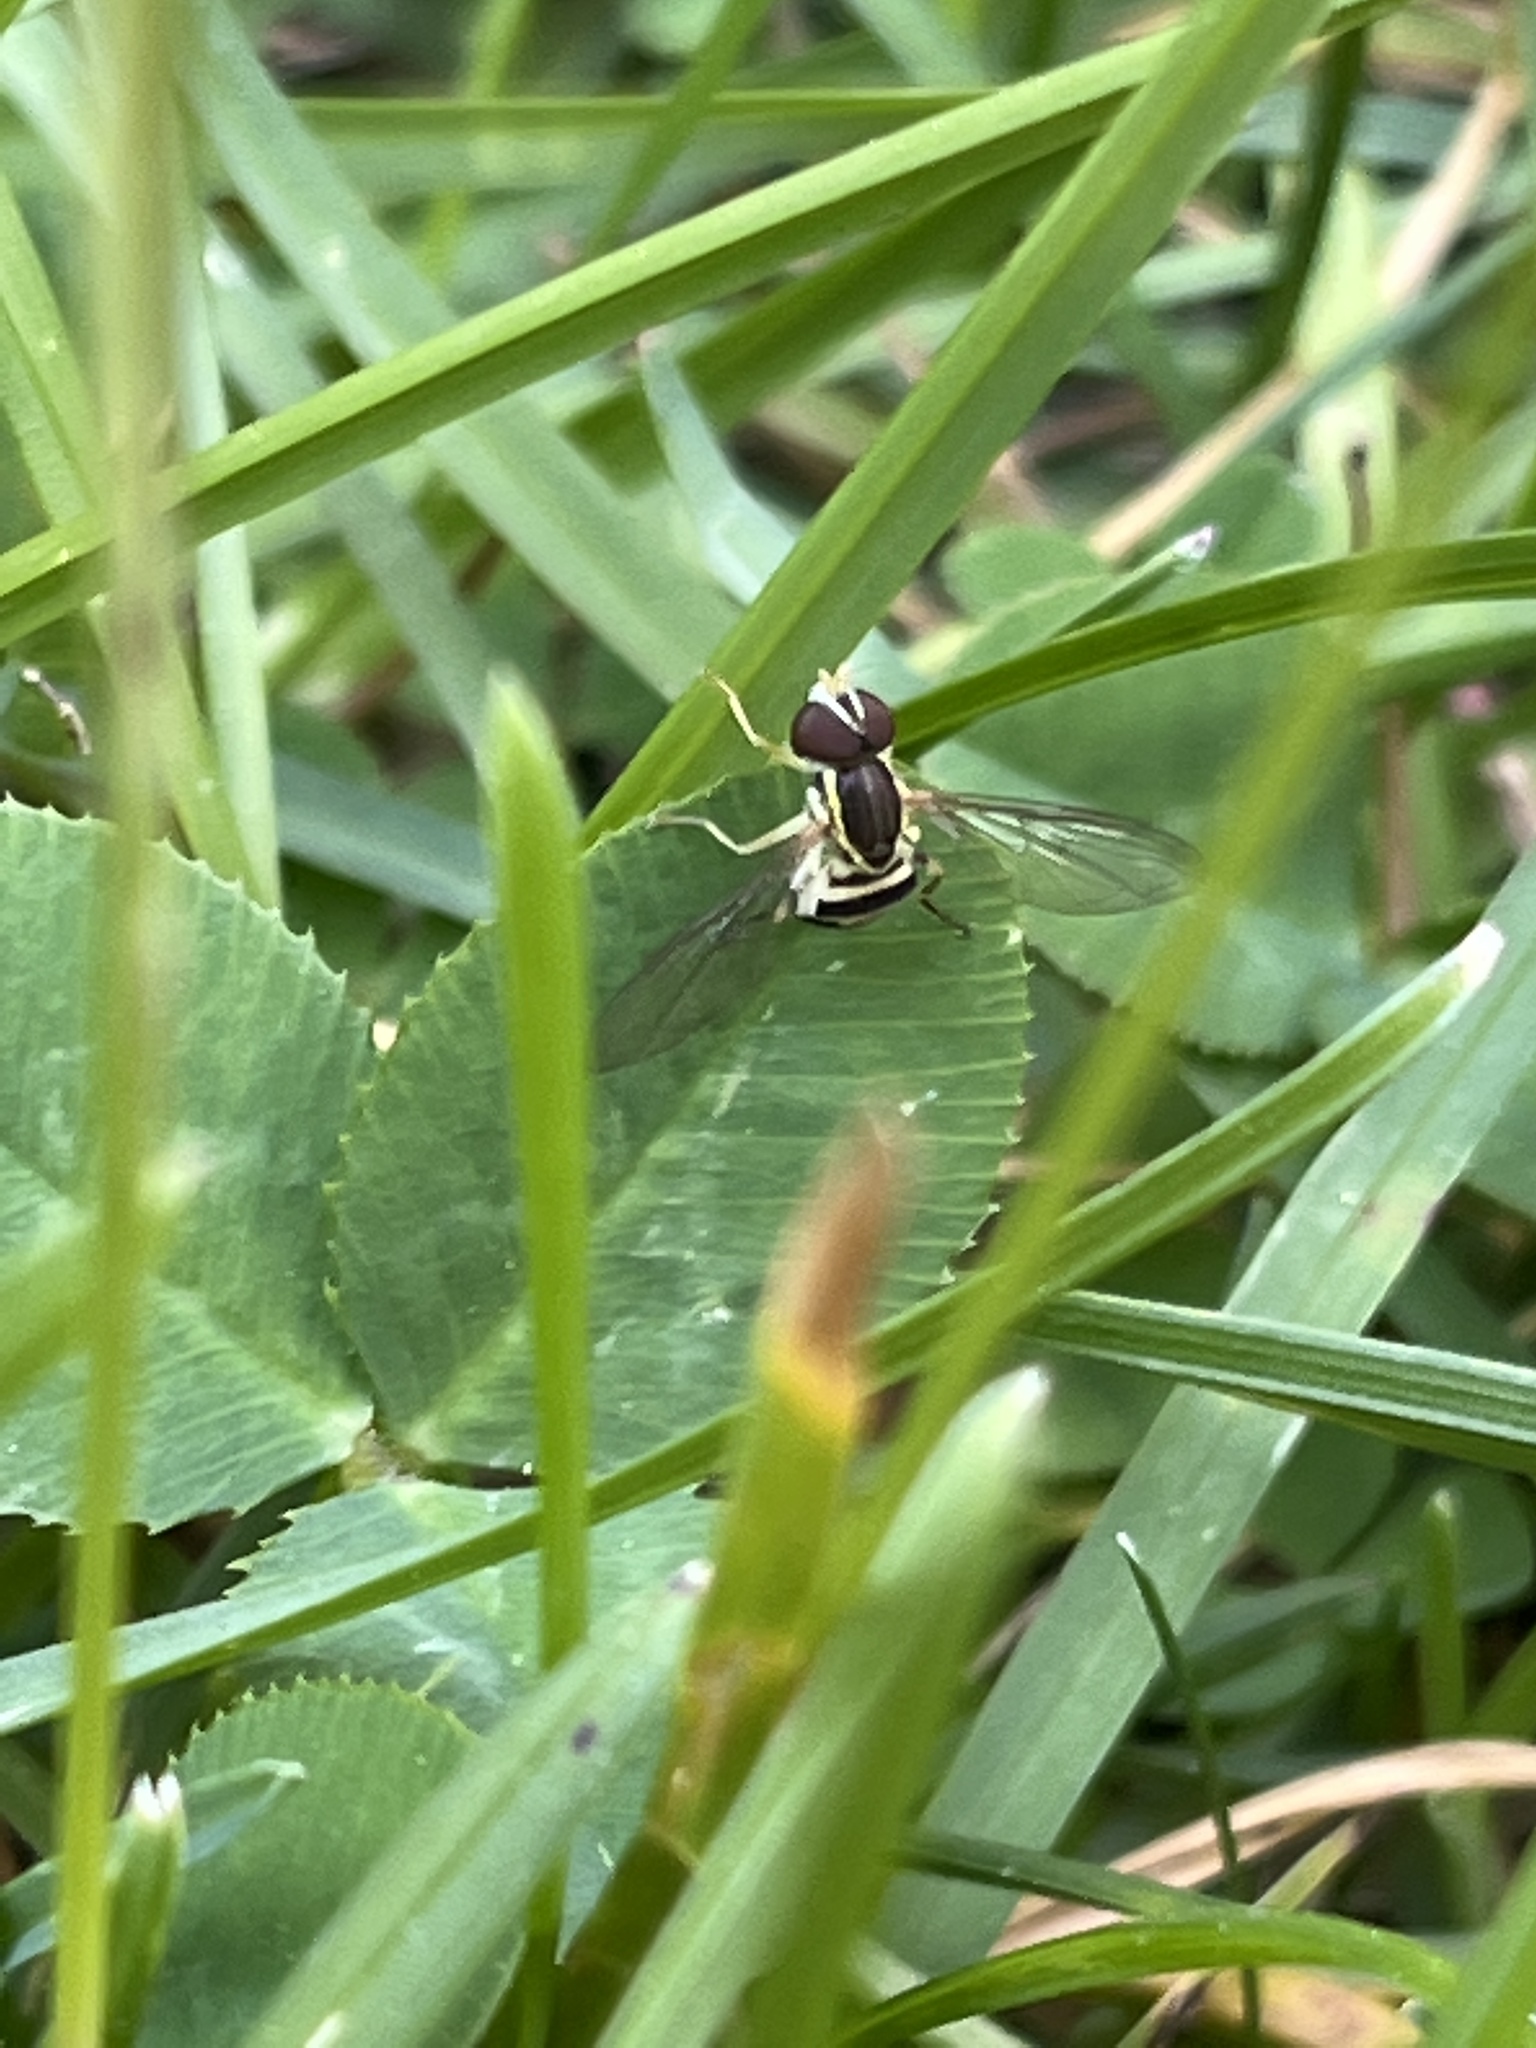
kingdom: Animalia
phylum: Arthropoda
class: Insecta
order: Diptera
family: Syrphidae
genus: Toxomerus
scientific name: Toxomerus geminatus
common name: Eastern calligrapher
